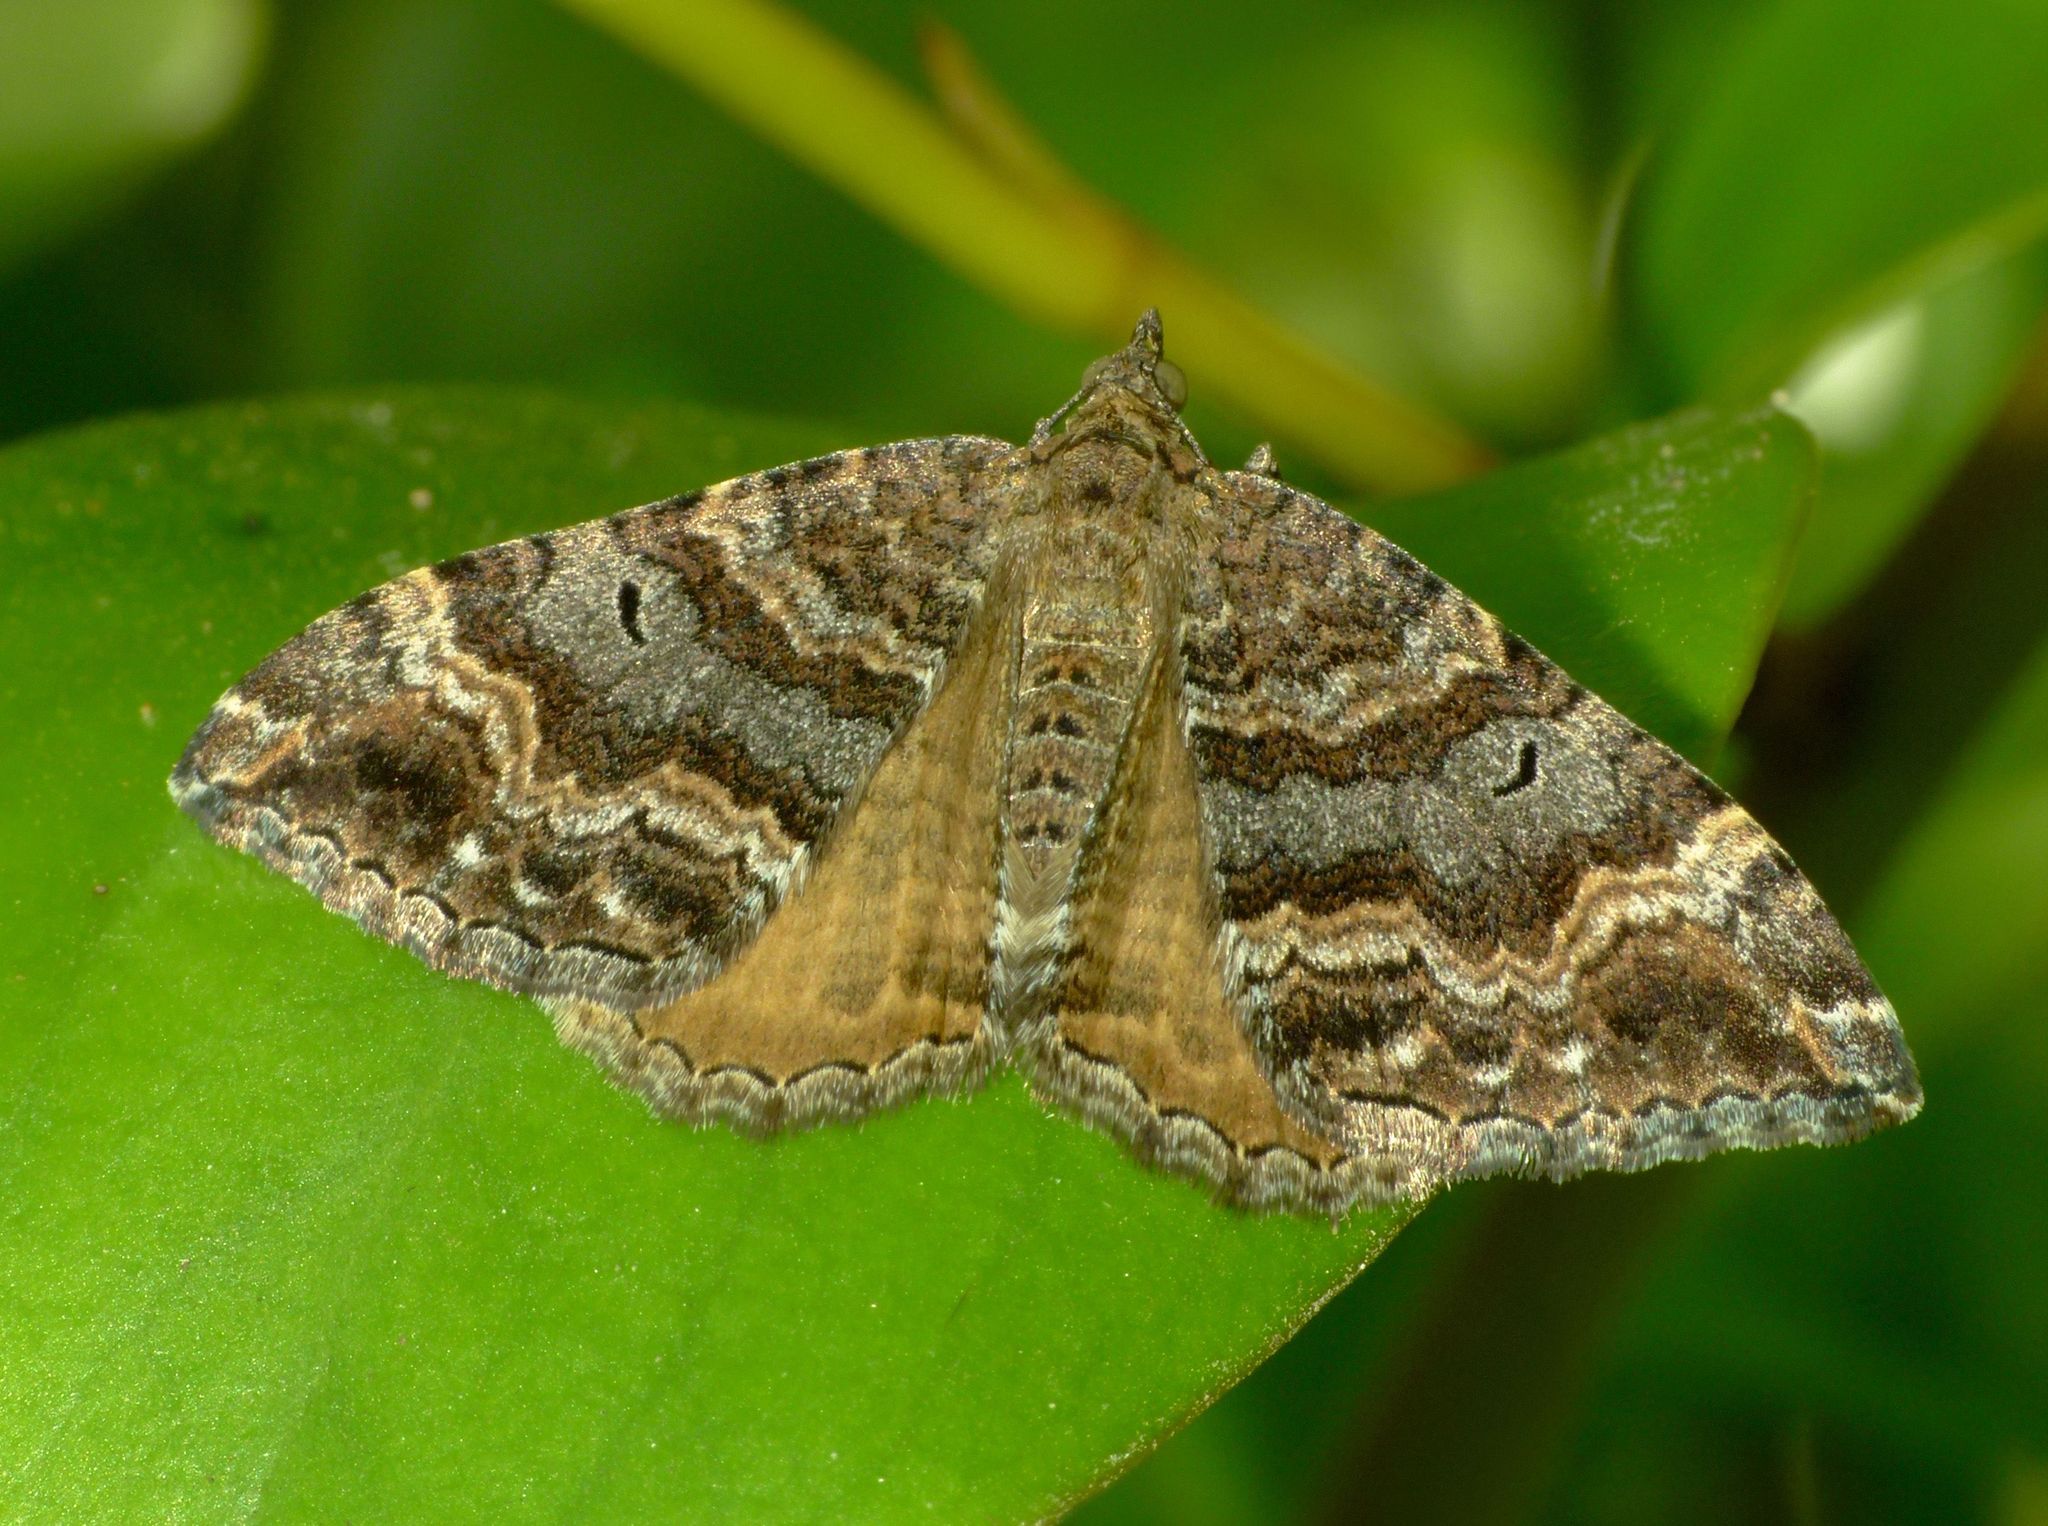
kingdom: Animalia
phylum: Arthropoda
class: Insecta
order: Lepidoptera
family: Geometridae
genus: Hydriomena
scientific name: Hydriomena deltoidata
